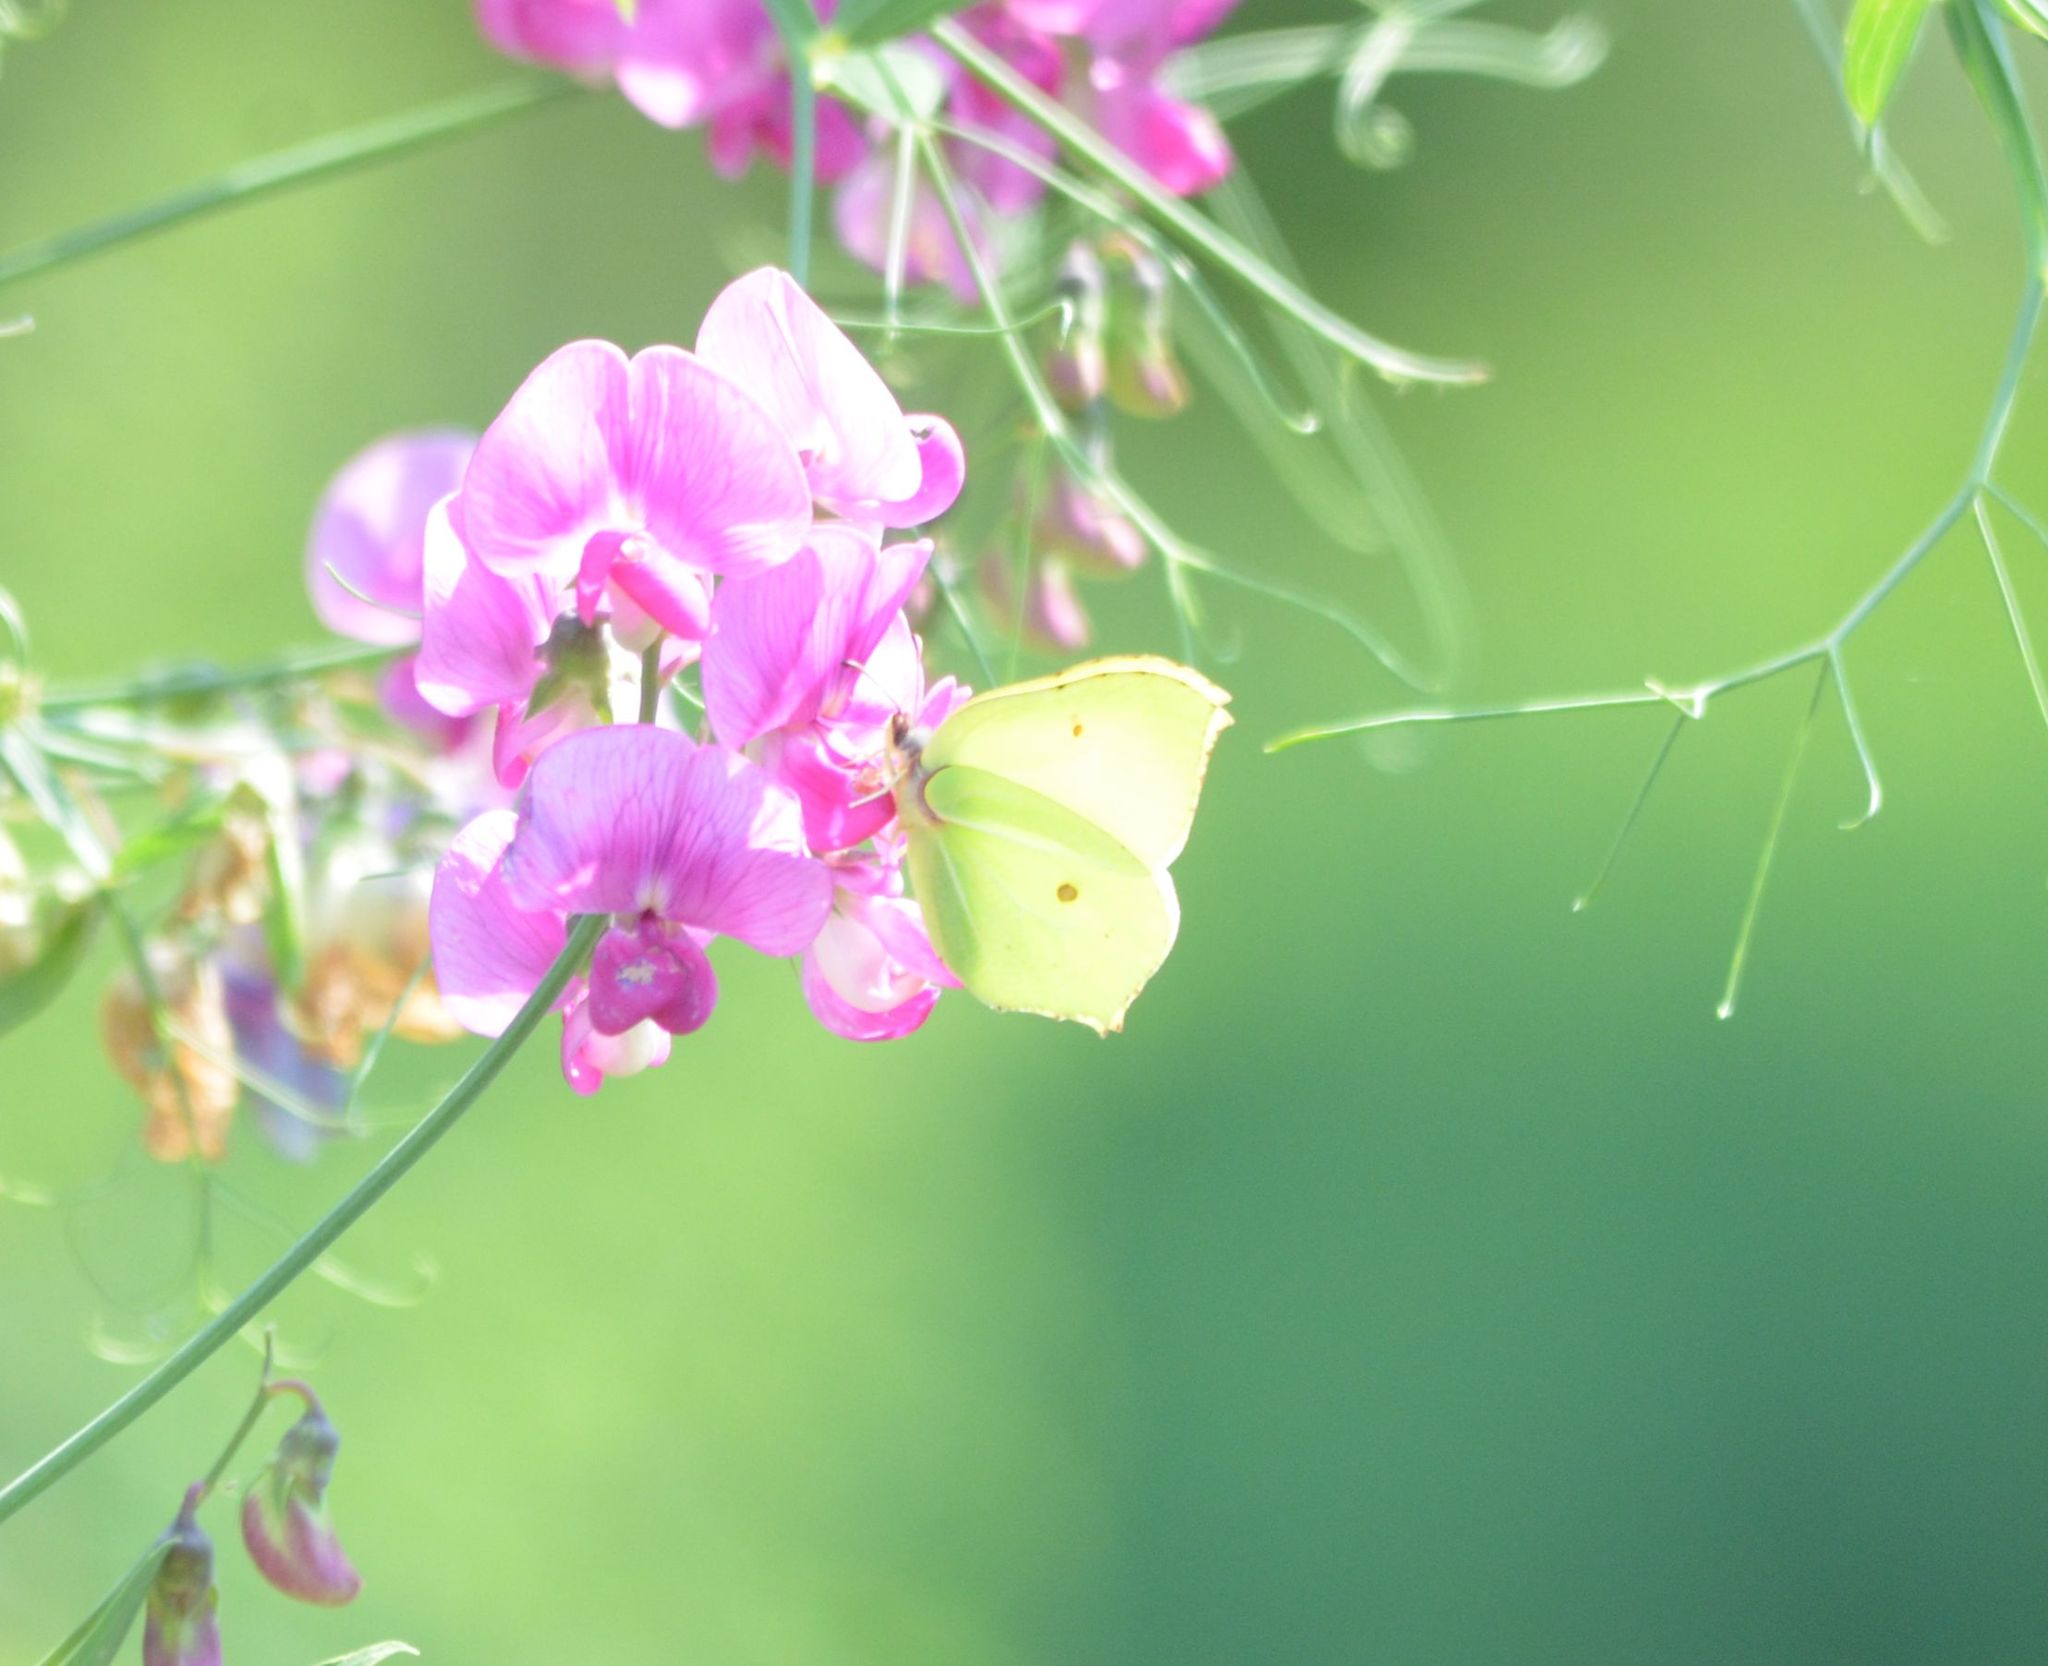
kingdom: Animalia
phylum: Arthropoda
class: Insecta
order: Lepidoptera
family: Pieridae
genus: Gonepteryx
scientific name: Gonepteryx rhamni
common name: Brimstone
